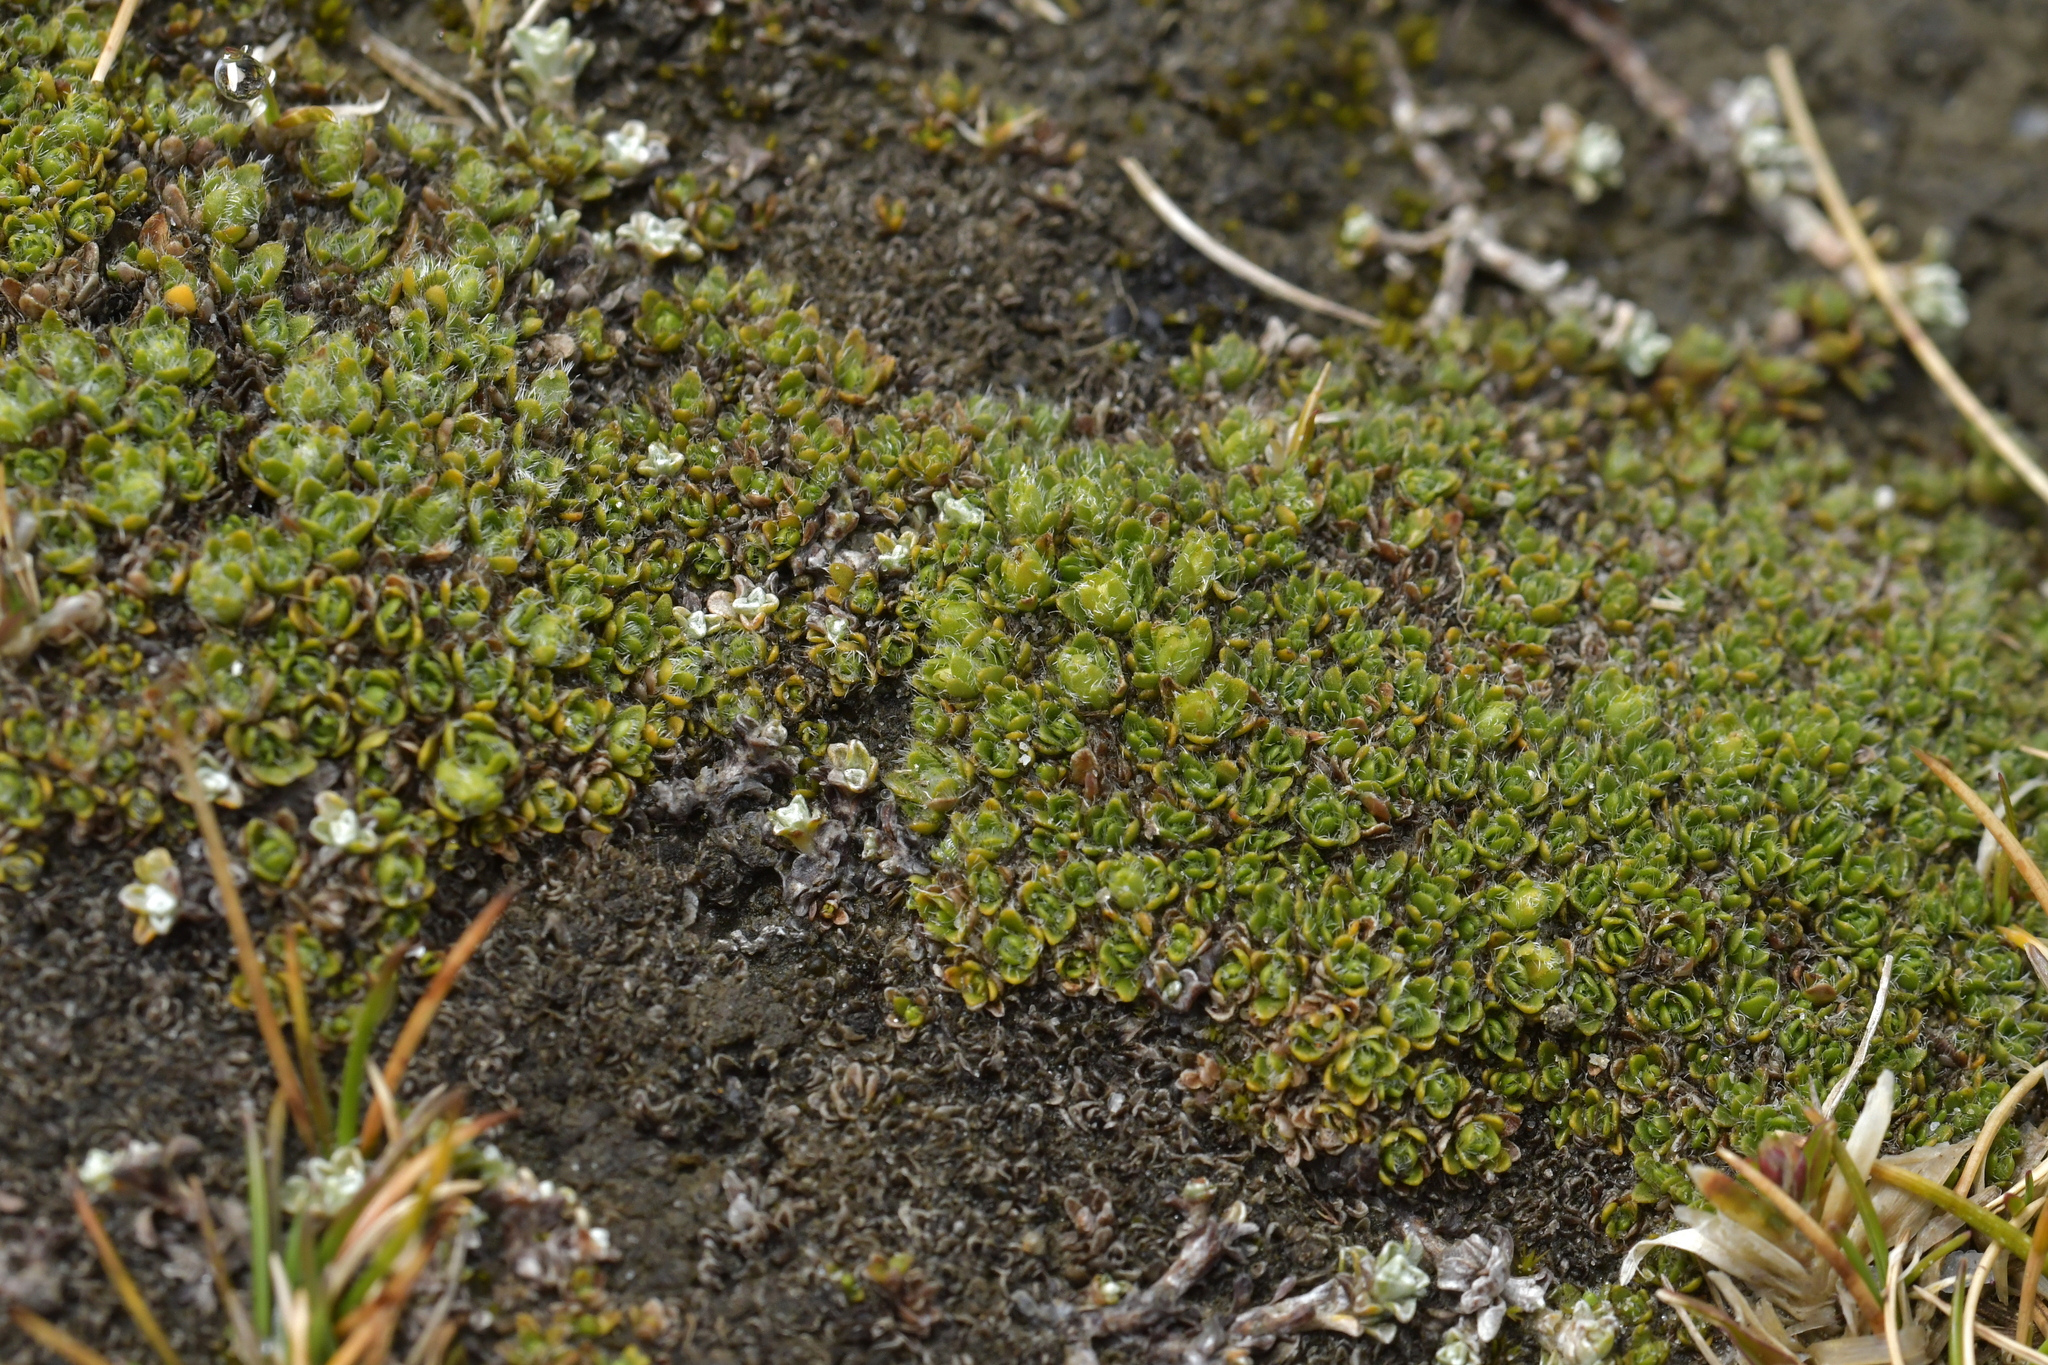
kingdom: Plantae
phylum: Tracheophyta
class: Magnoliopsida
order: Lamiales
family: Plantaginaceae
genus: Veronica
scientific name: Veronica pulvinaris
